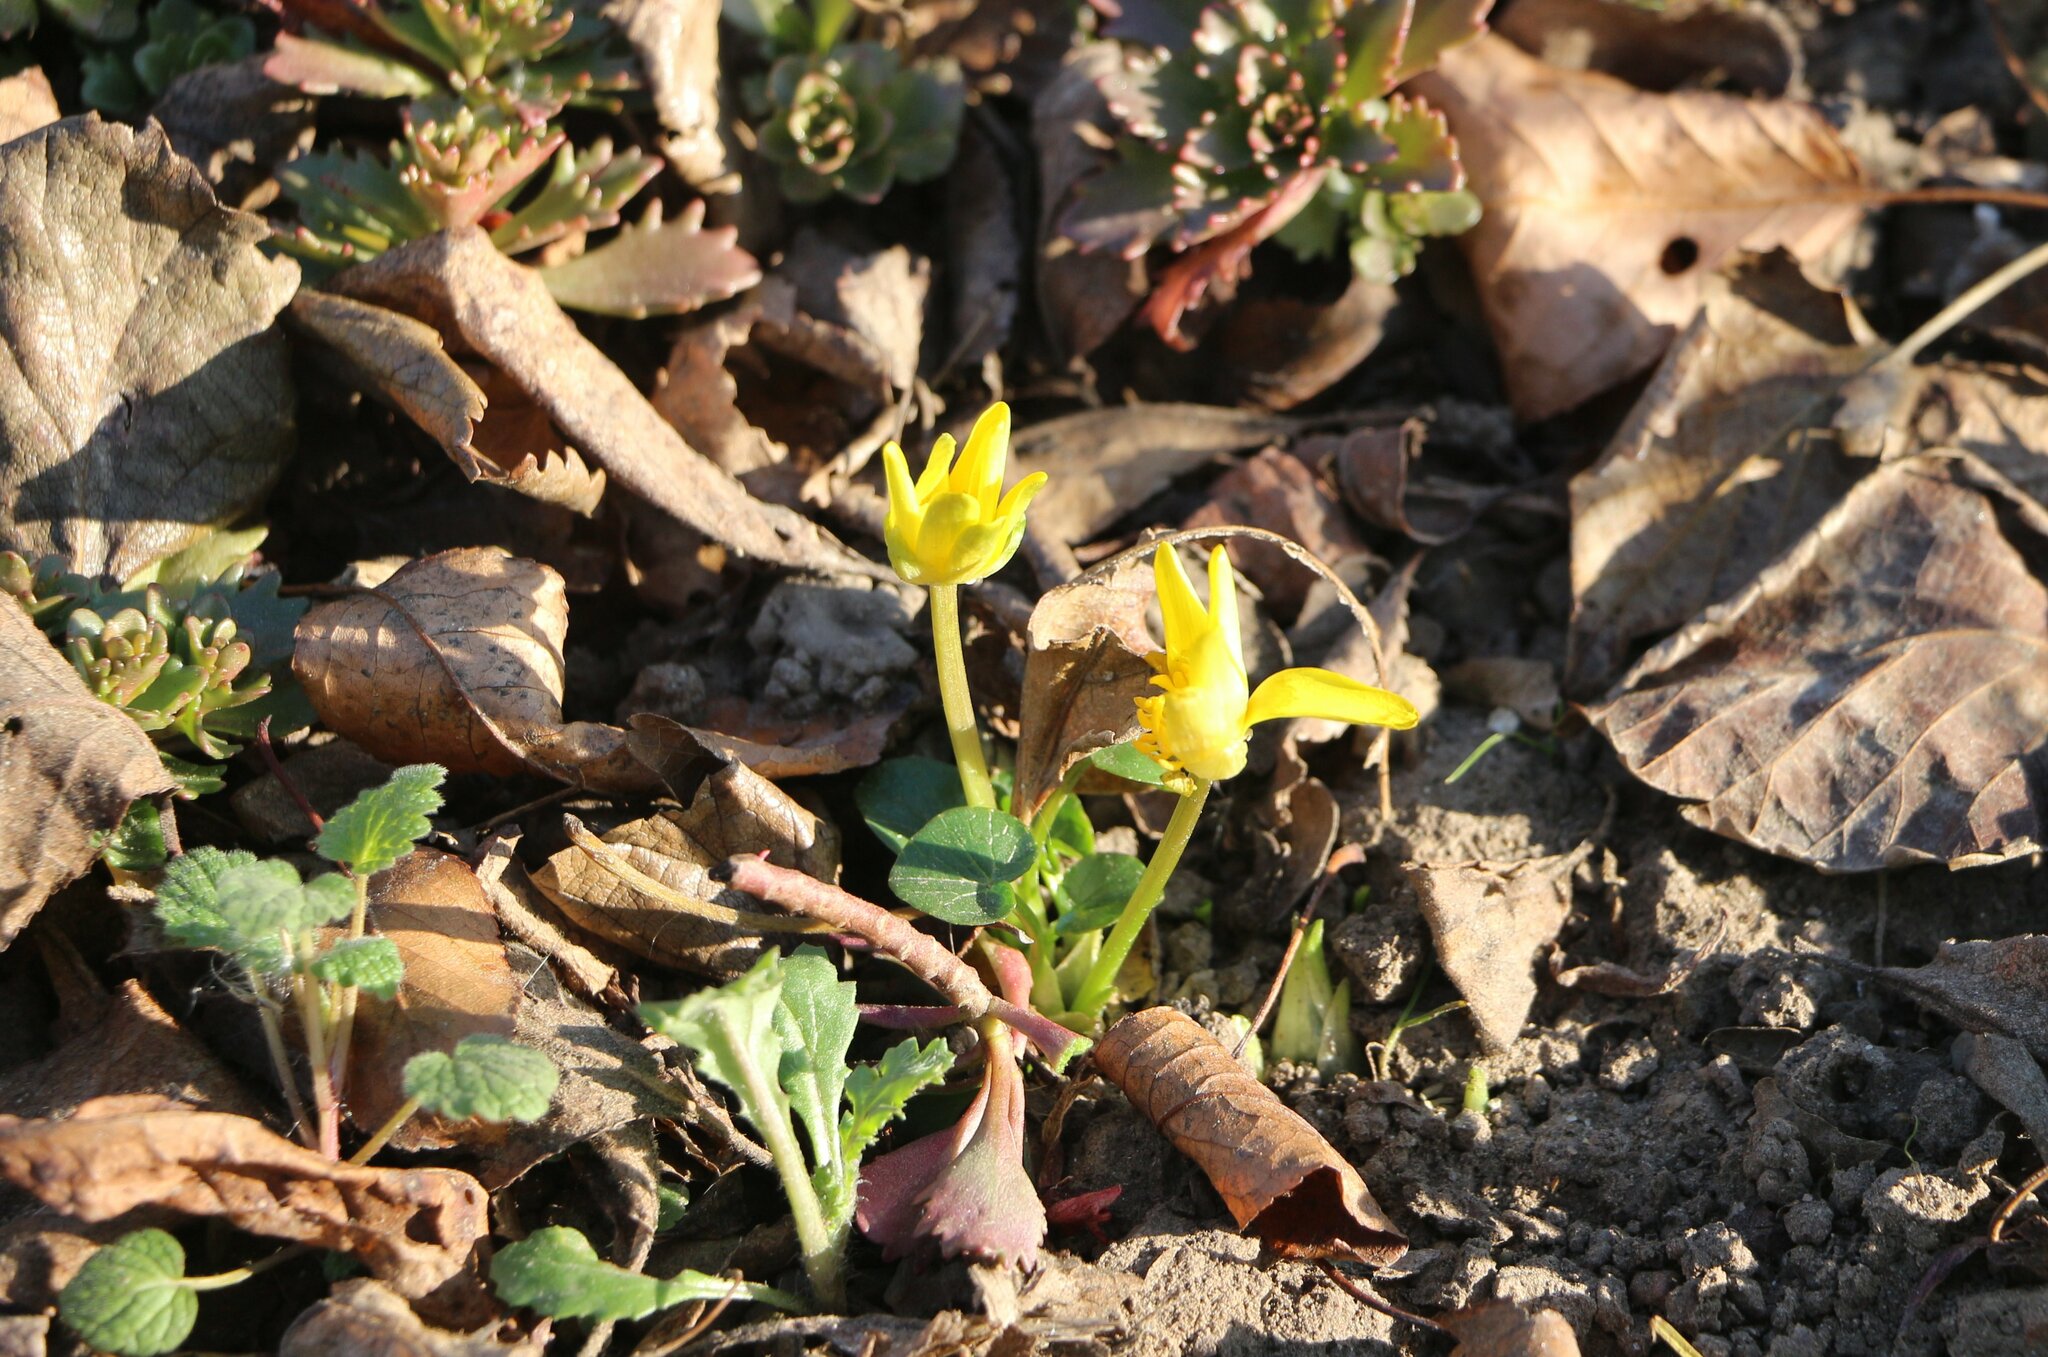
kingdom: Plantae
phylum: Tracheophyta
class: Magnoliopsida
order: Ranunculales
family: Ranunculaceae
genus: Ficaria
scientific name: Ficaria verna
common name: Lesser celandine
